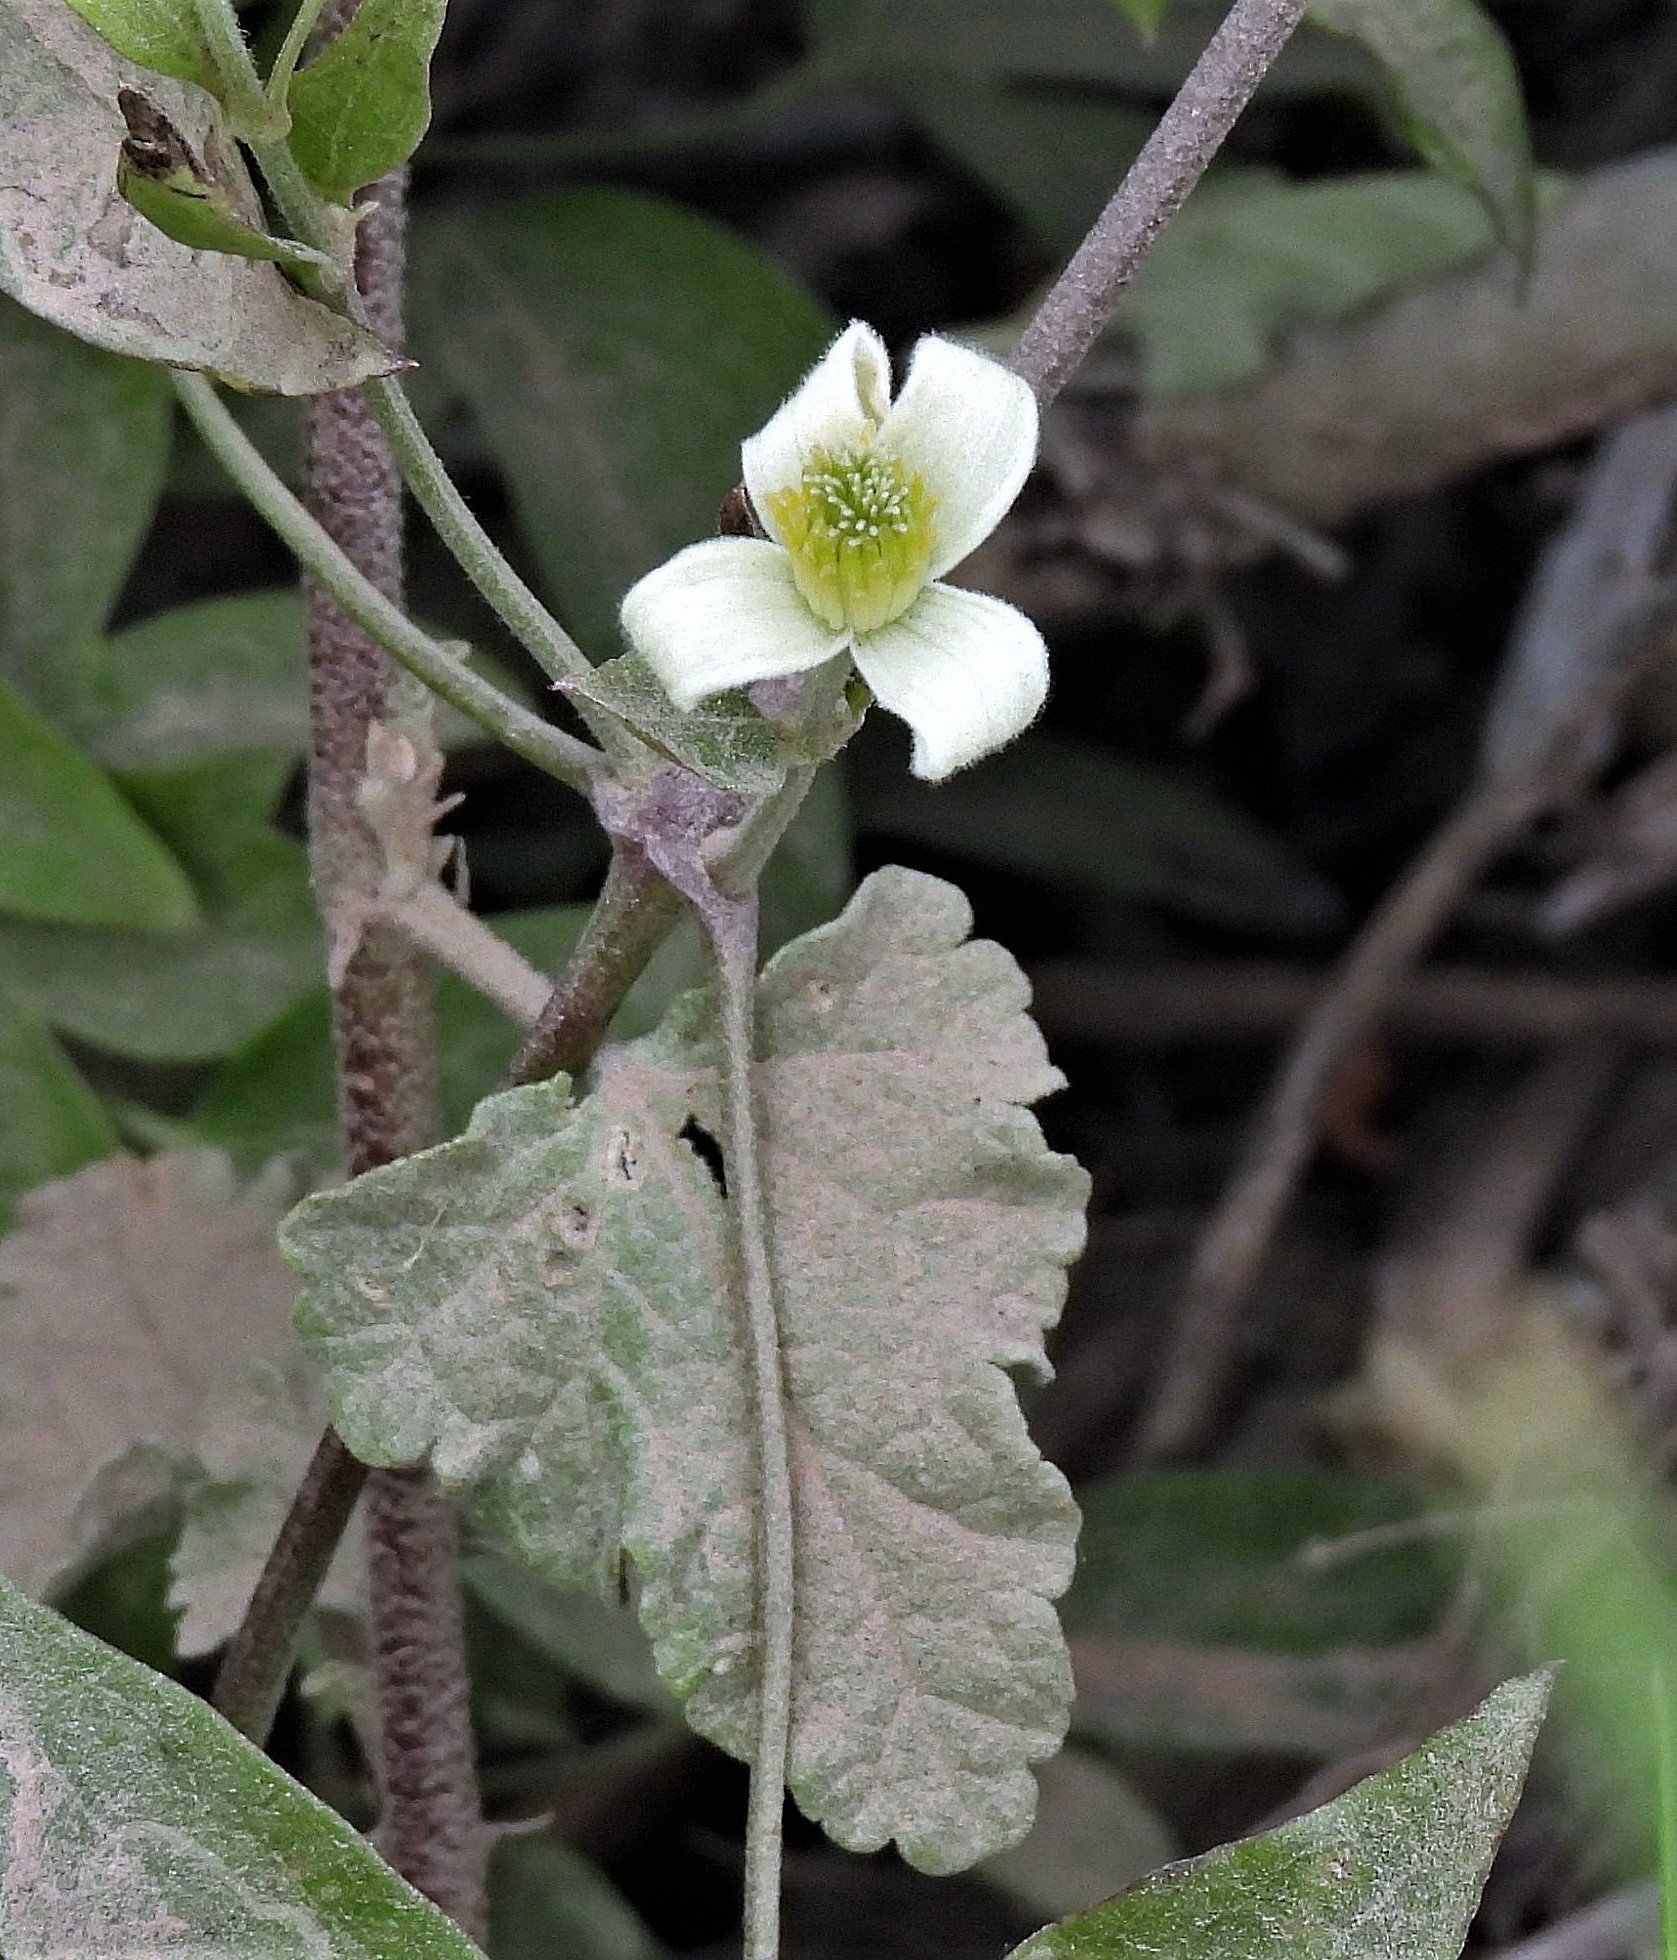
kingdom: Plantae
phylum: Tracheophyta
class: Magnoliopsida
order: Ranunculales
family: Ranunculaceae
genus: Clematis
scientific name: Clematis montevidensis
